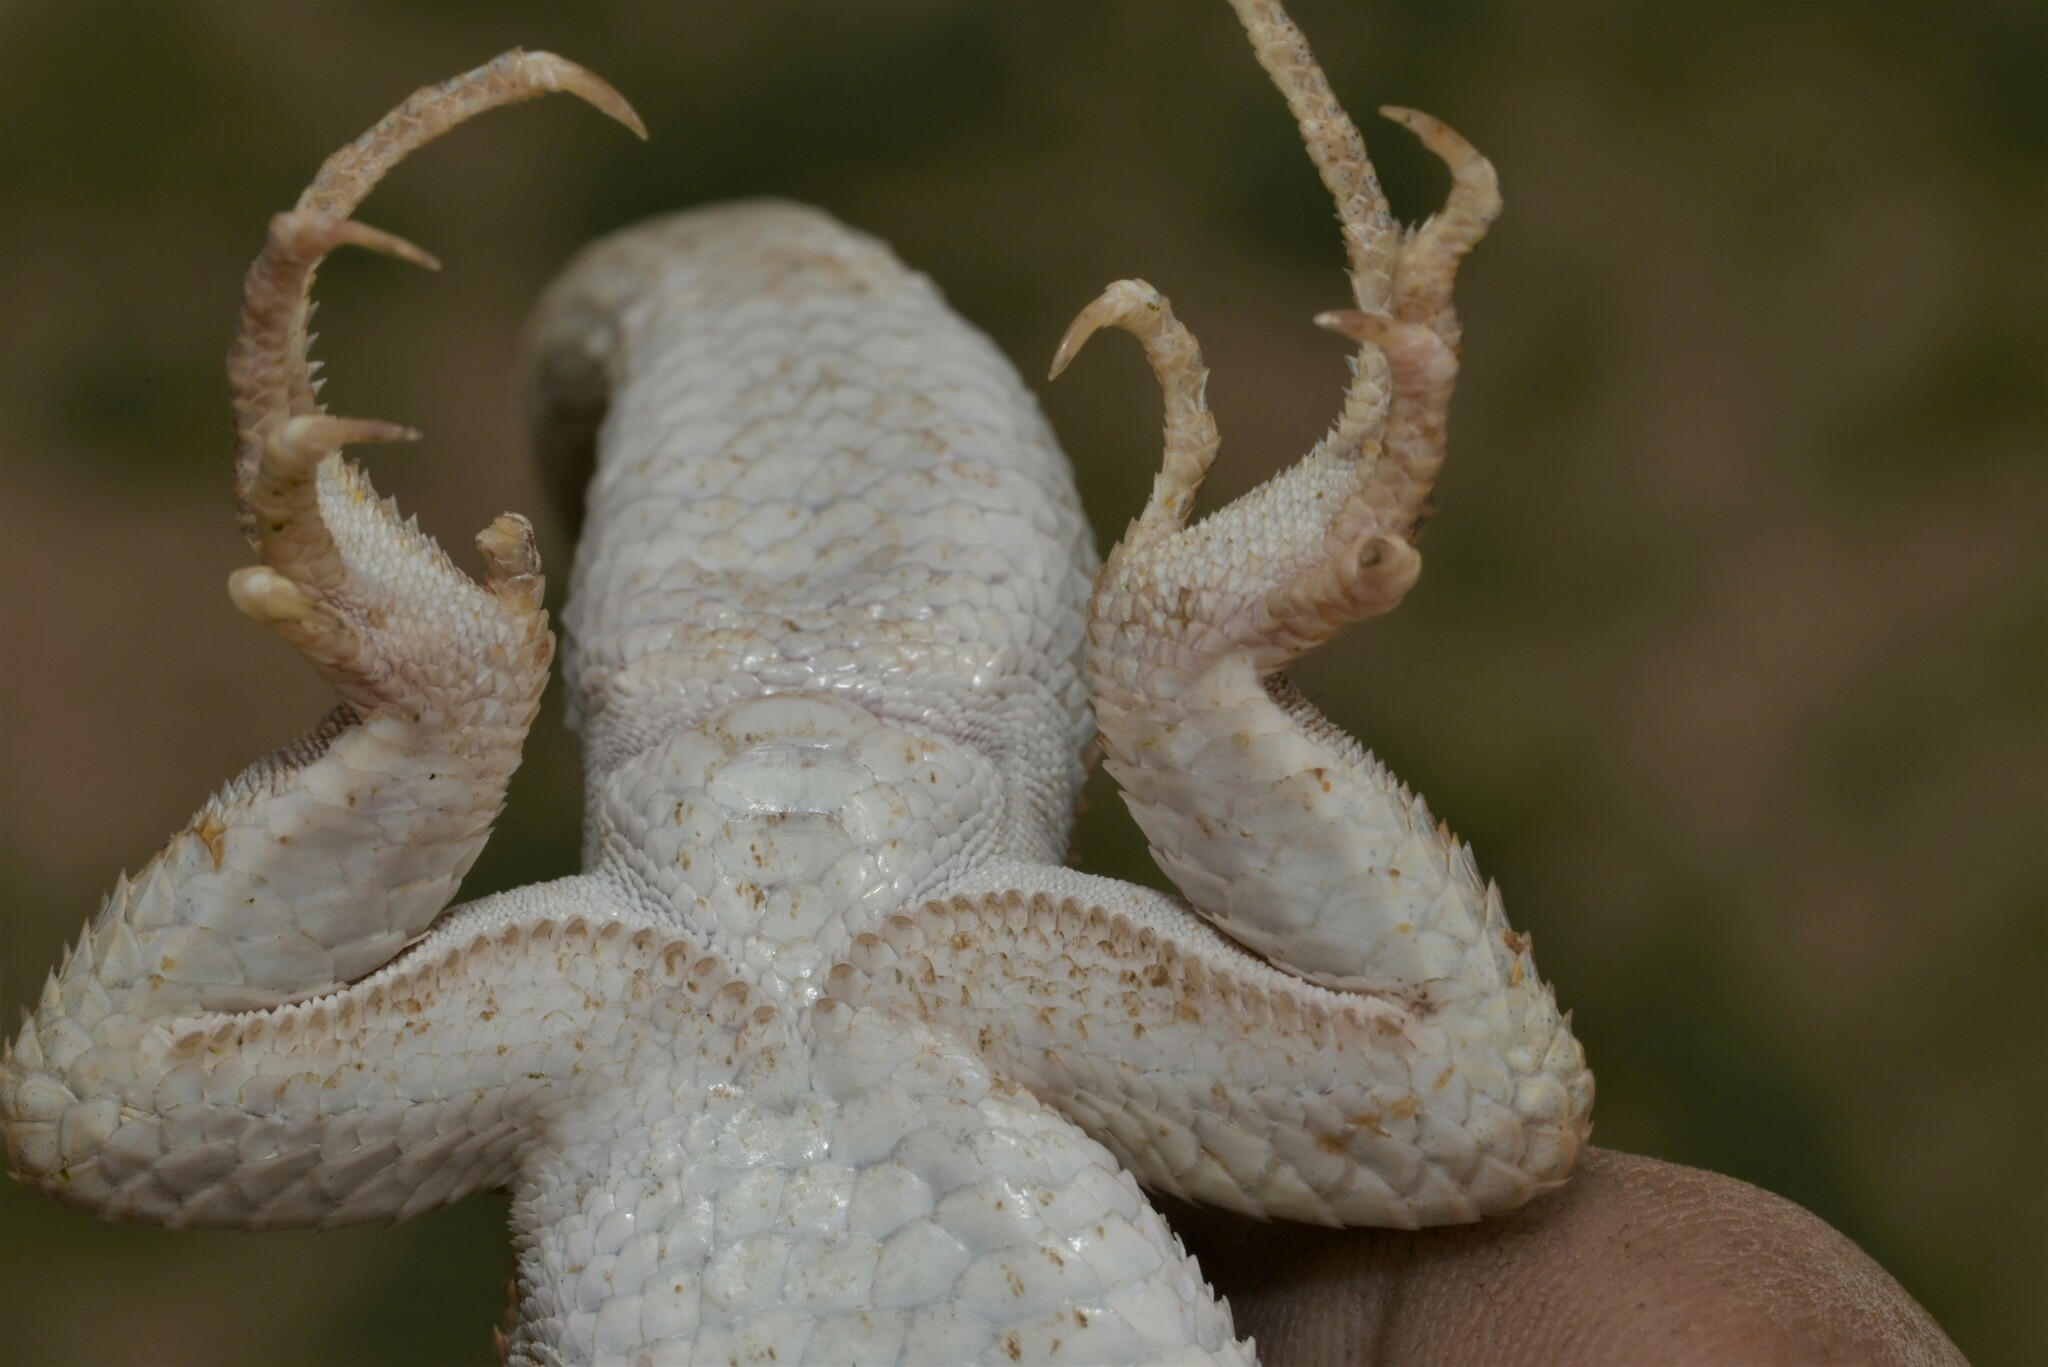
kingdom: Animalia
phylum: Chordata
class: Squamata
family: Lacertidae
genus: Acanthodactylus
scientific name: Acanthodactylus boskianus
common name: Bosc’s fringe-toed lizard
